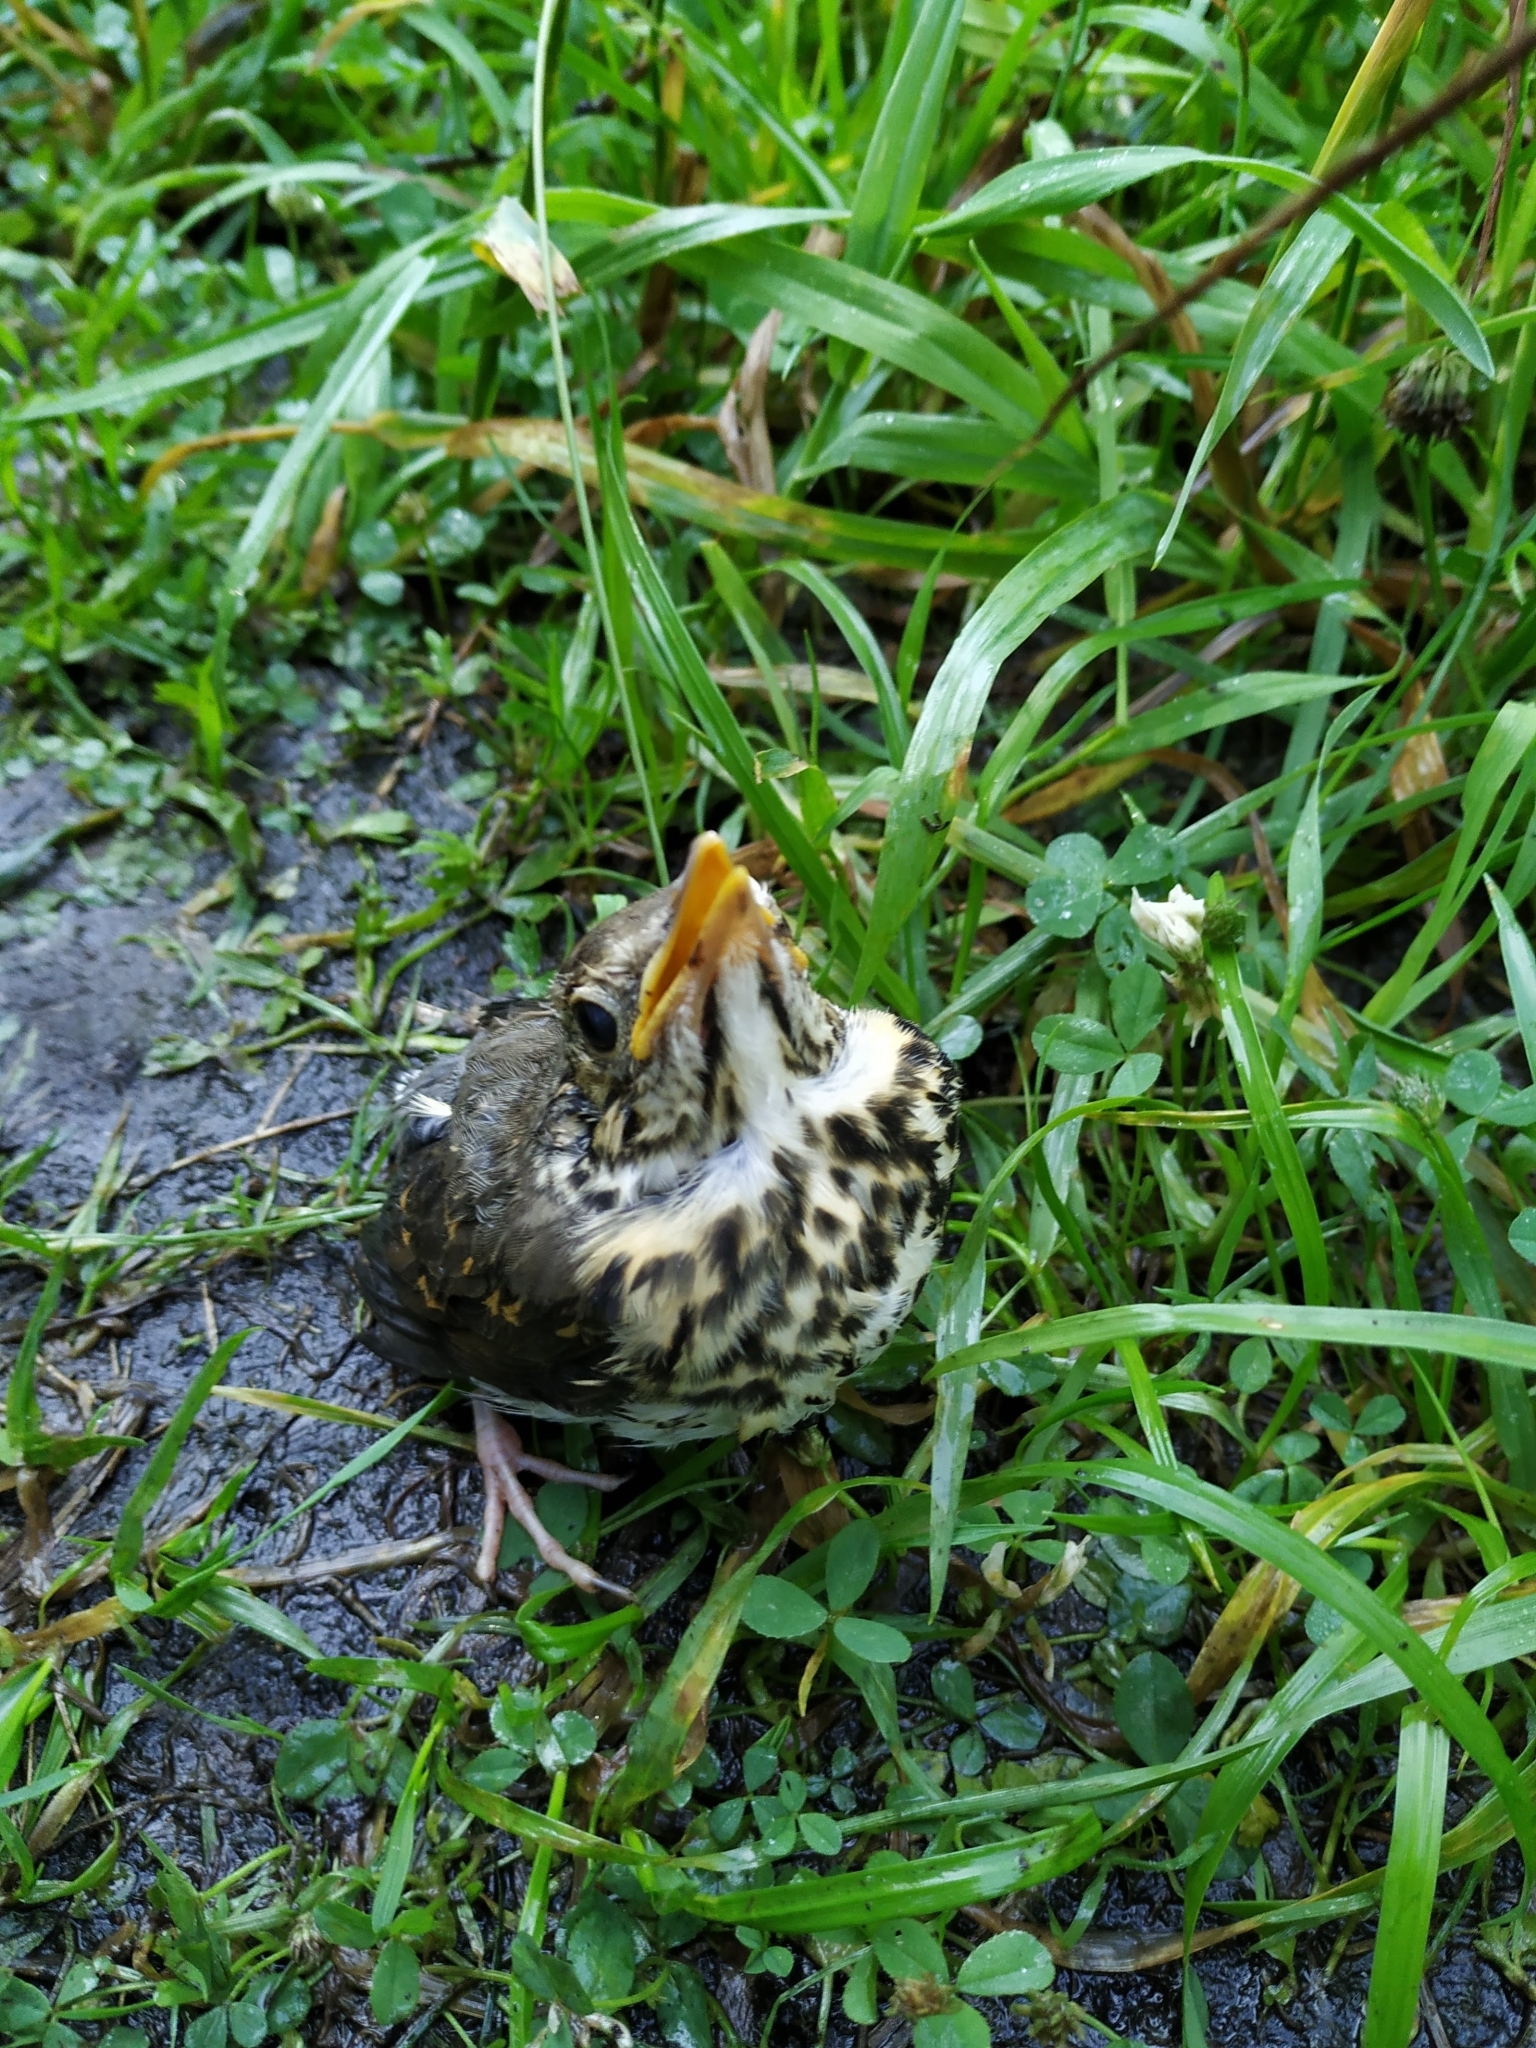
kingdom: Animalia
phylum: Chordata
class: Aves
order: Passeriformes
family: Turdidae
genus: Turdus
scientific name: Turdus philomelos
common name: Song thrush
